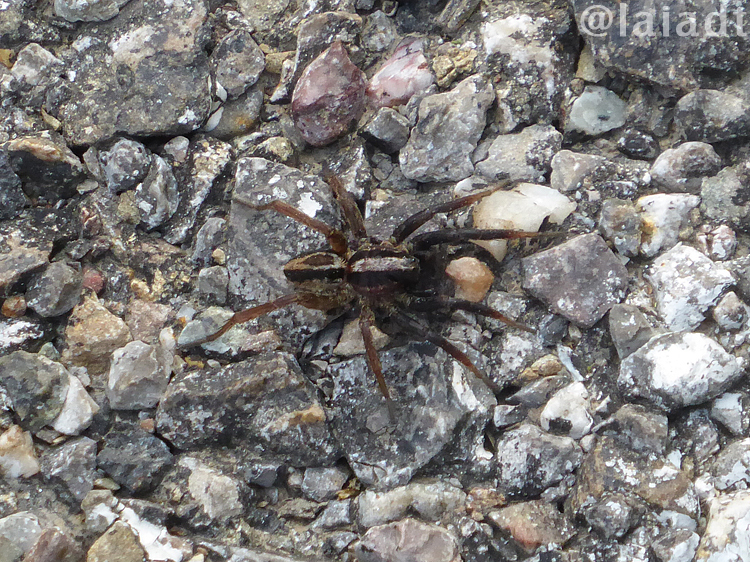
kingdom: Animalia
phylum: Arthropoda
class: Arachnida
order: Araneae
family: Lycosidae
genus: Alopecosa
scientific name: Alopecosa albofasciata
